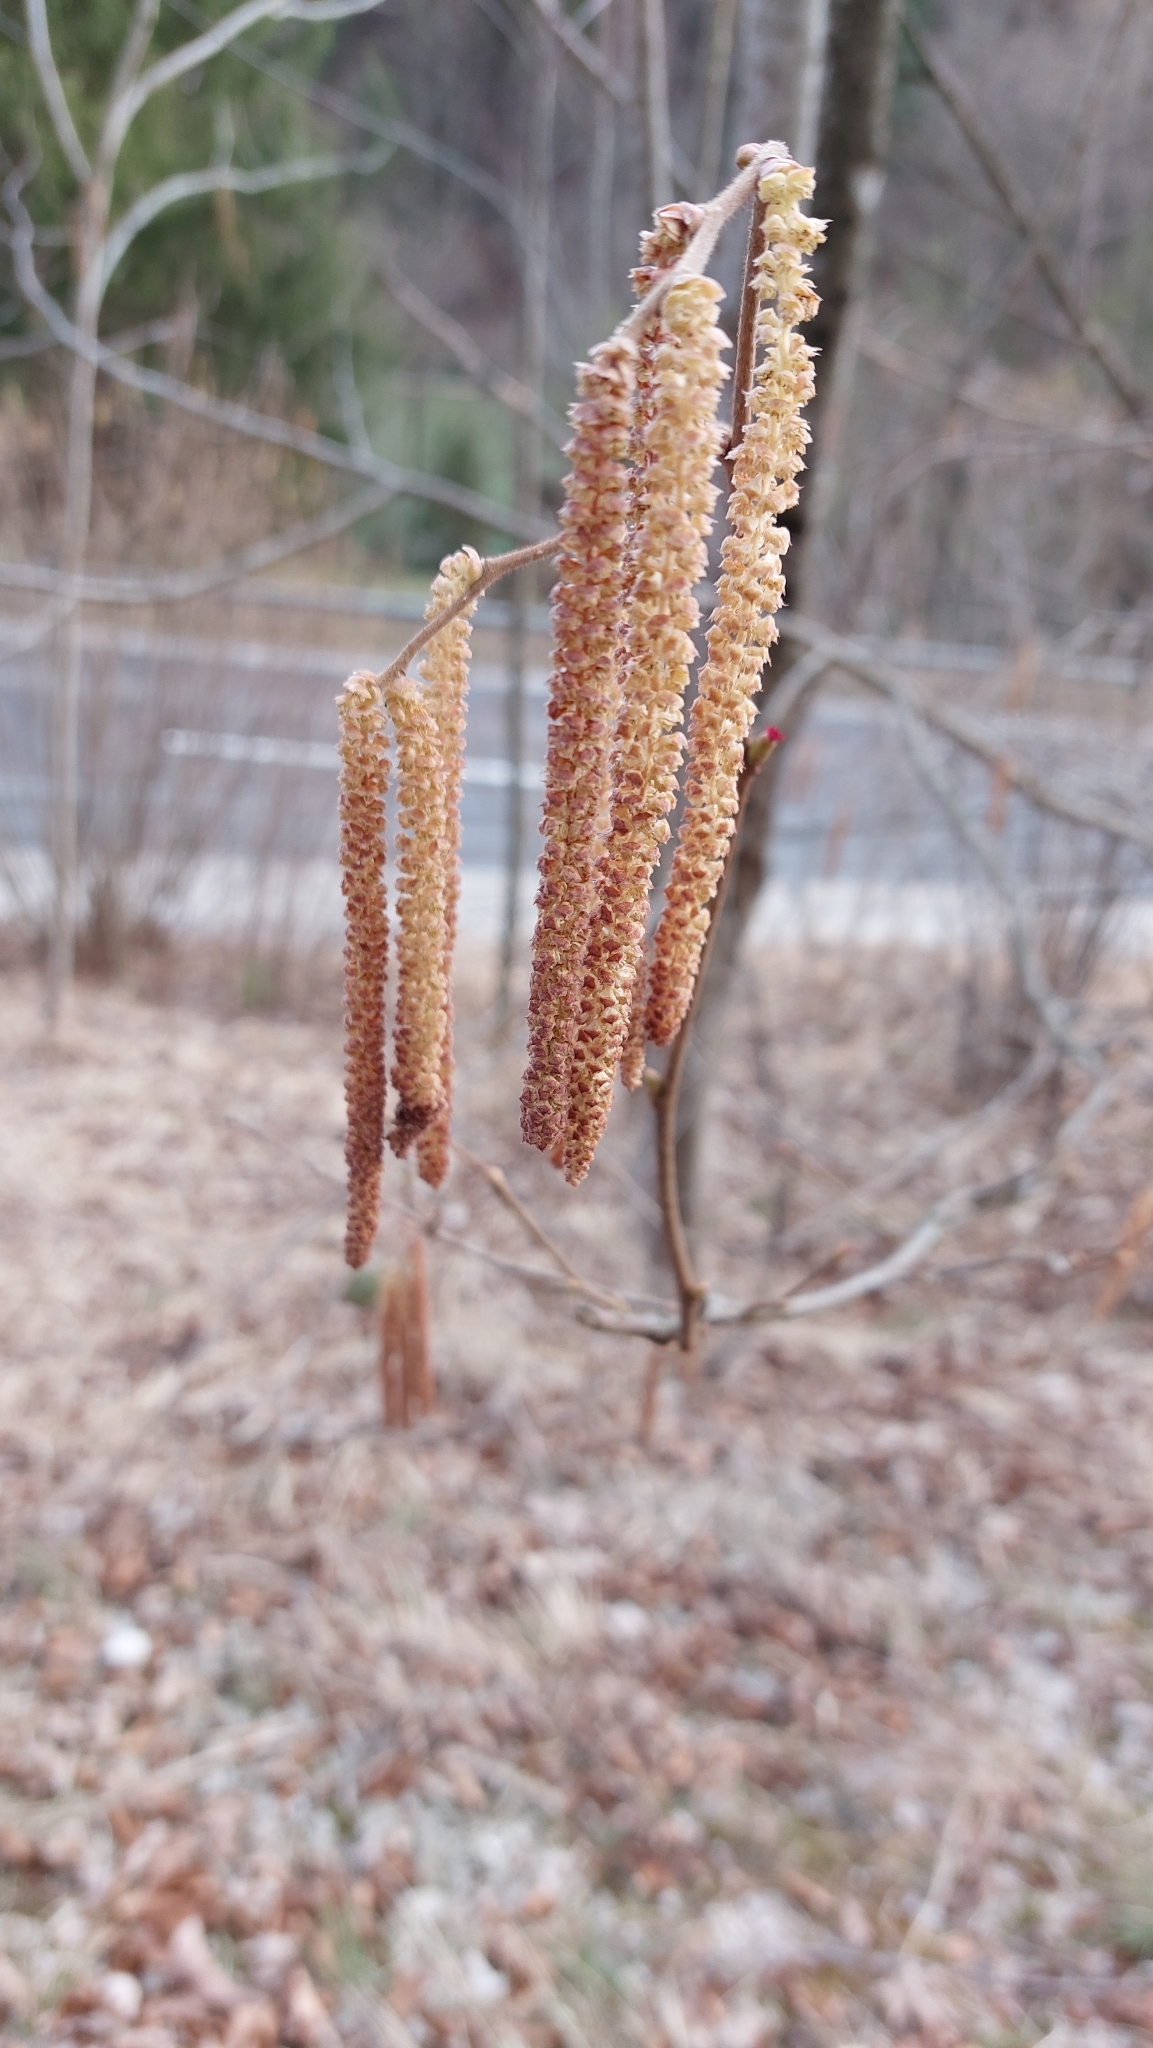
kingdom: Plantae
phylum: Tracheophyta
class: Magnoliopsida
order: Fagales
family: Betulaceae
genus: Corylus
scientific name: Corylus avellana
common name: European hazel
